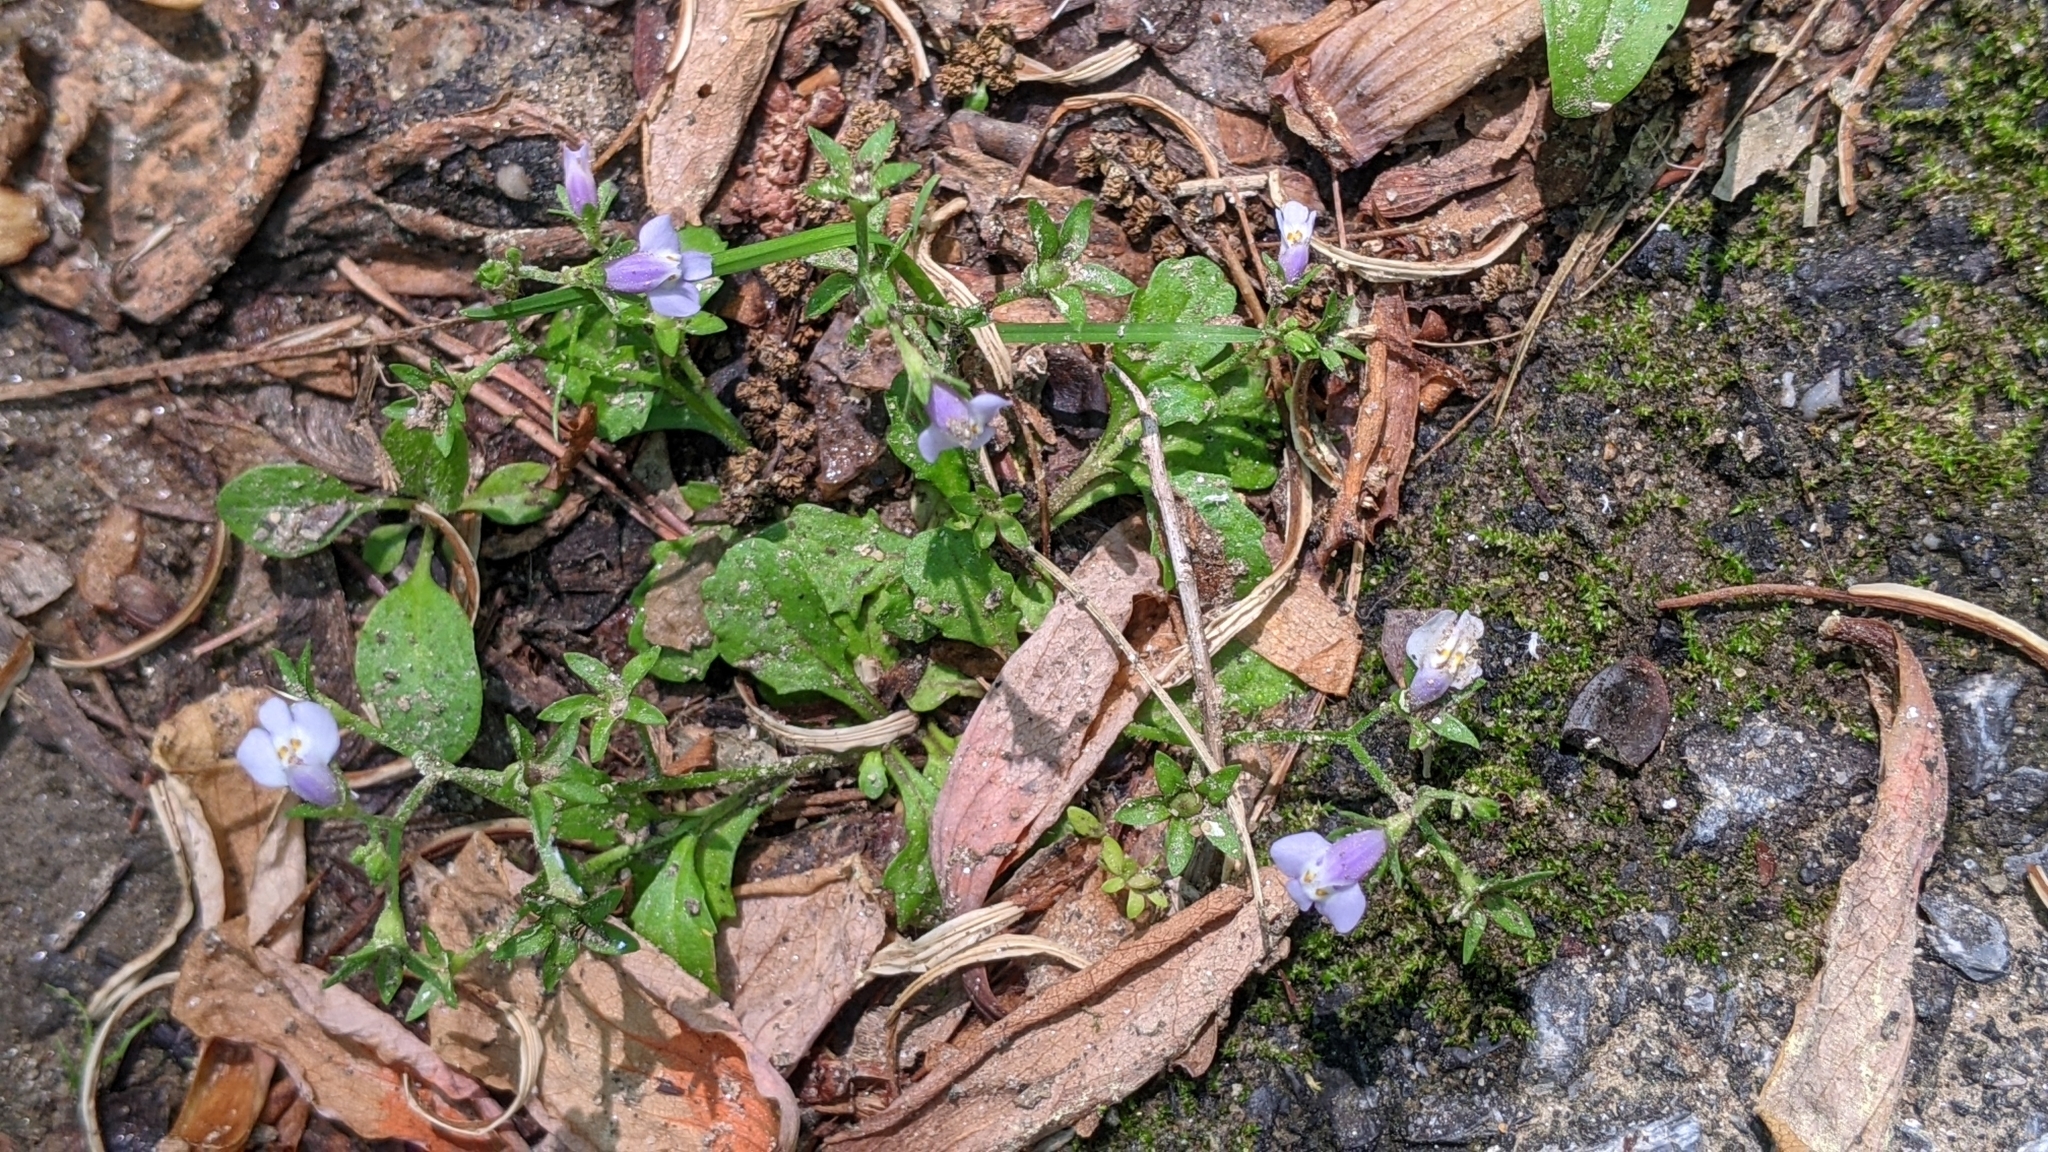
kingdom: Plantae
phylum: Tracheophyta
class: Magnoliopsida
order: Lamiales
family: Mazaceae
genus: Mazus
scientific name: Mazus pumilus
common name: Japanese mazus
